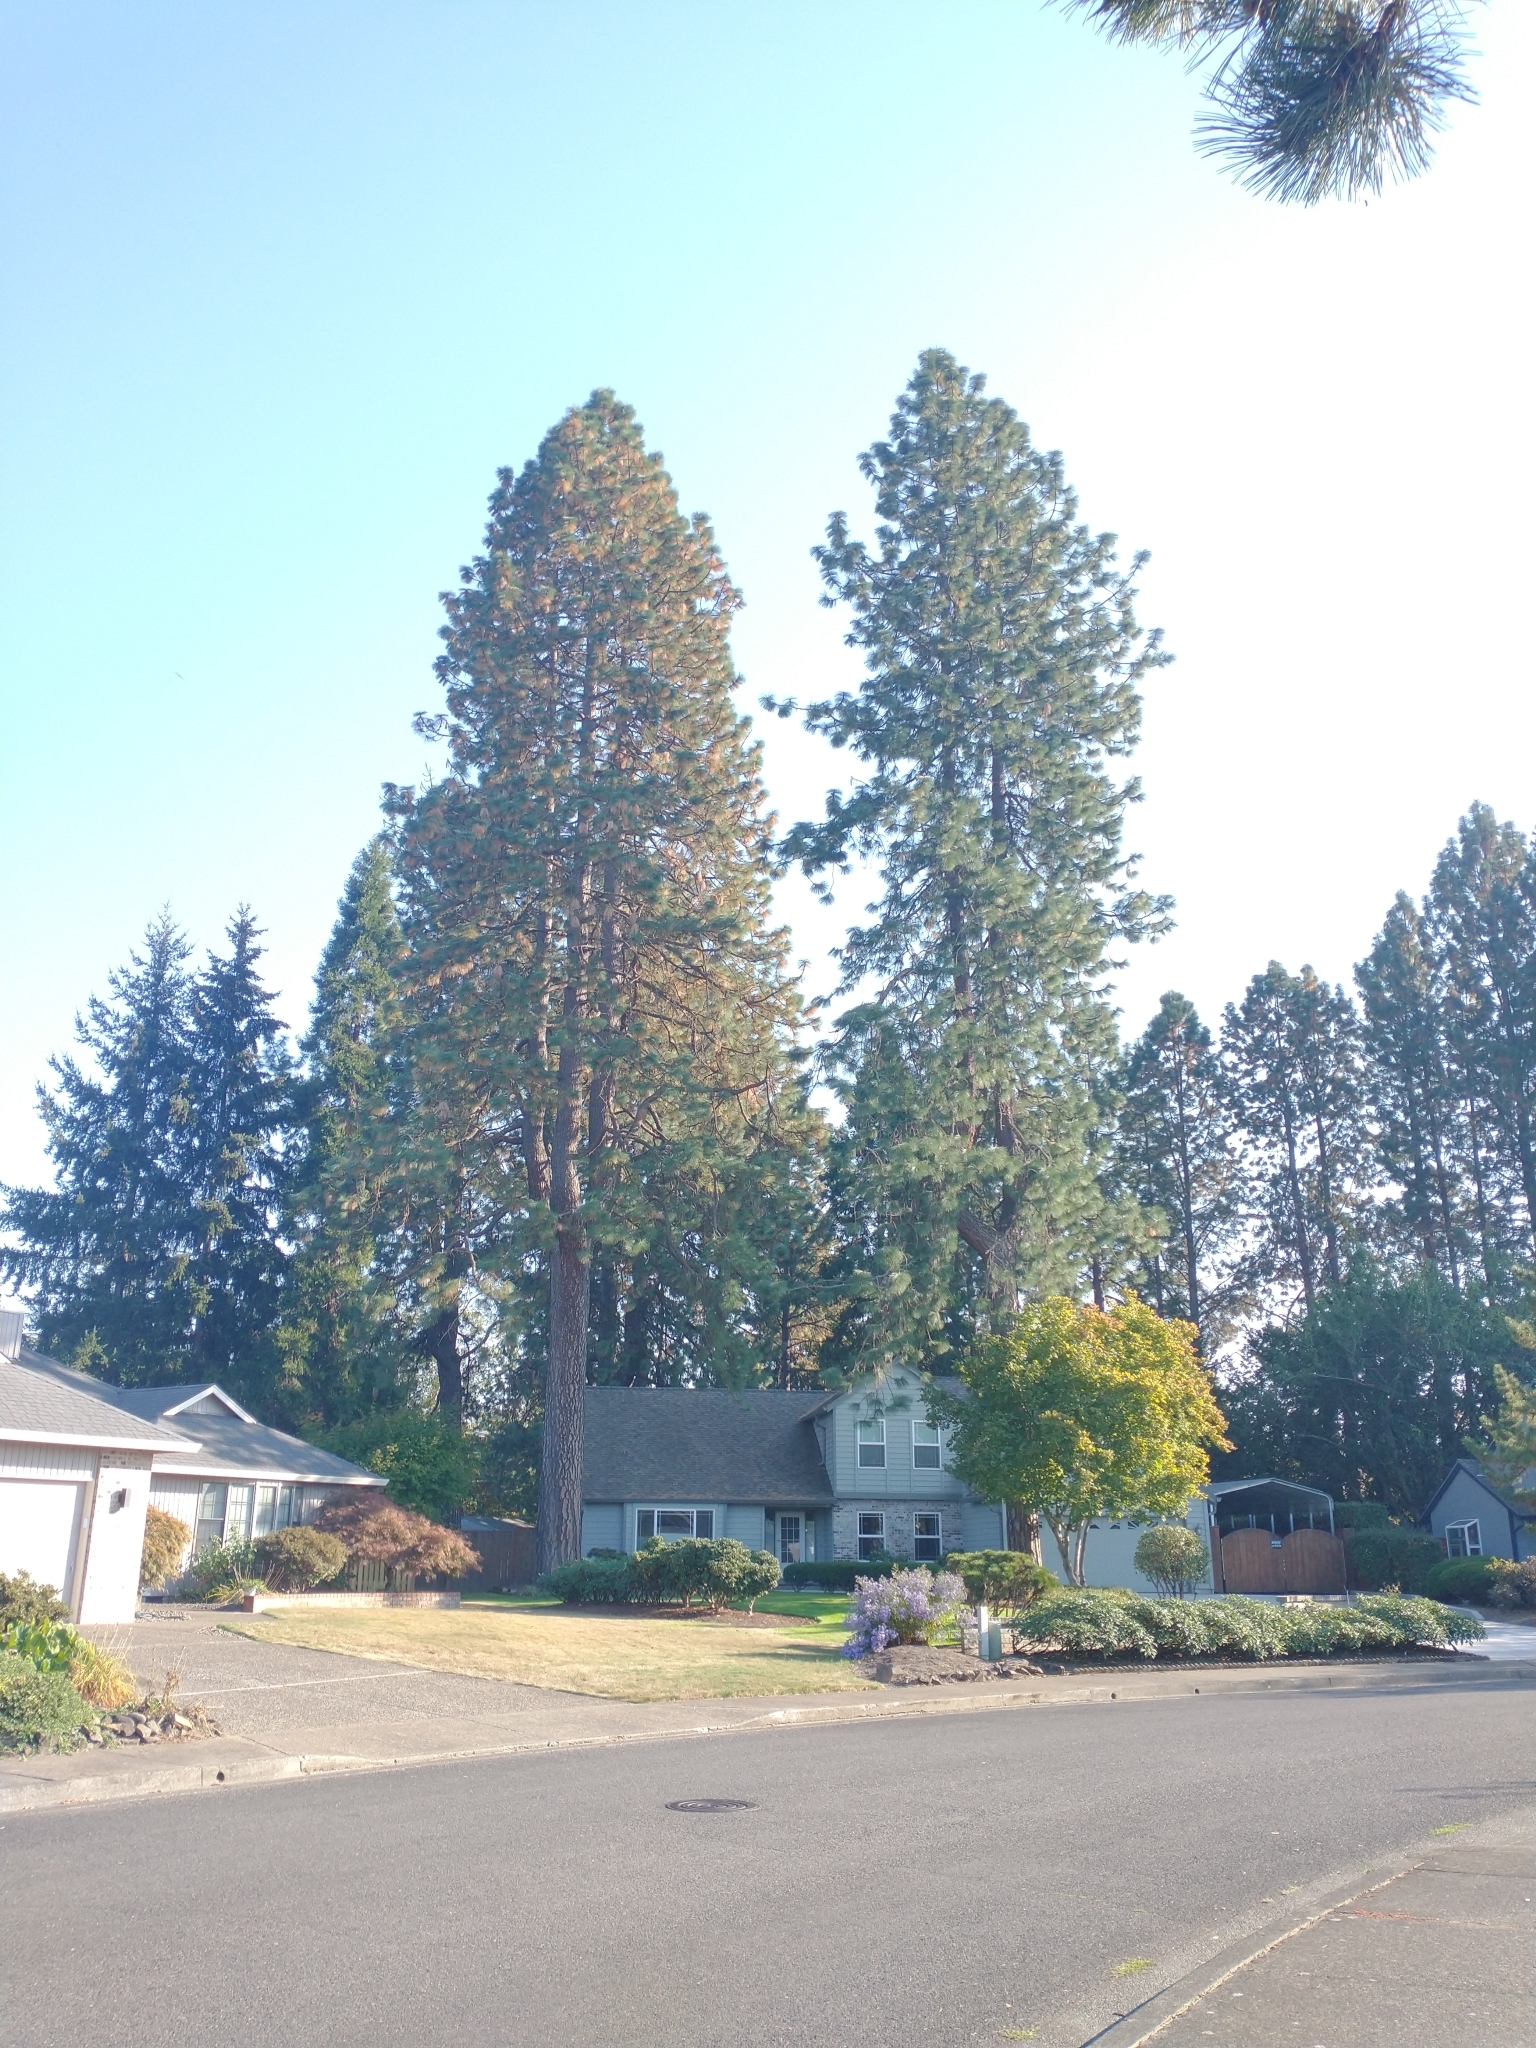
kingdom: Plantae
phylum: Tracheophyta
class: Pinopsida
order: Pinales
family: Pinaceae
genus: Pinus
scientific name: Pinus ponderosa
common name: Western yellow-pine
